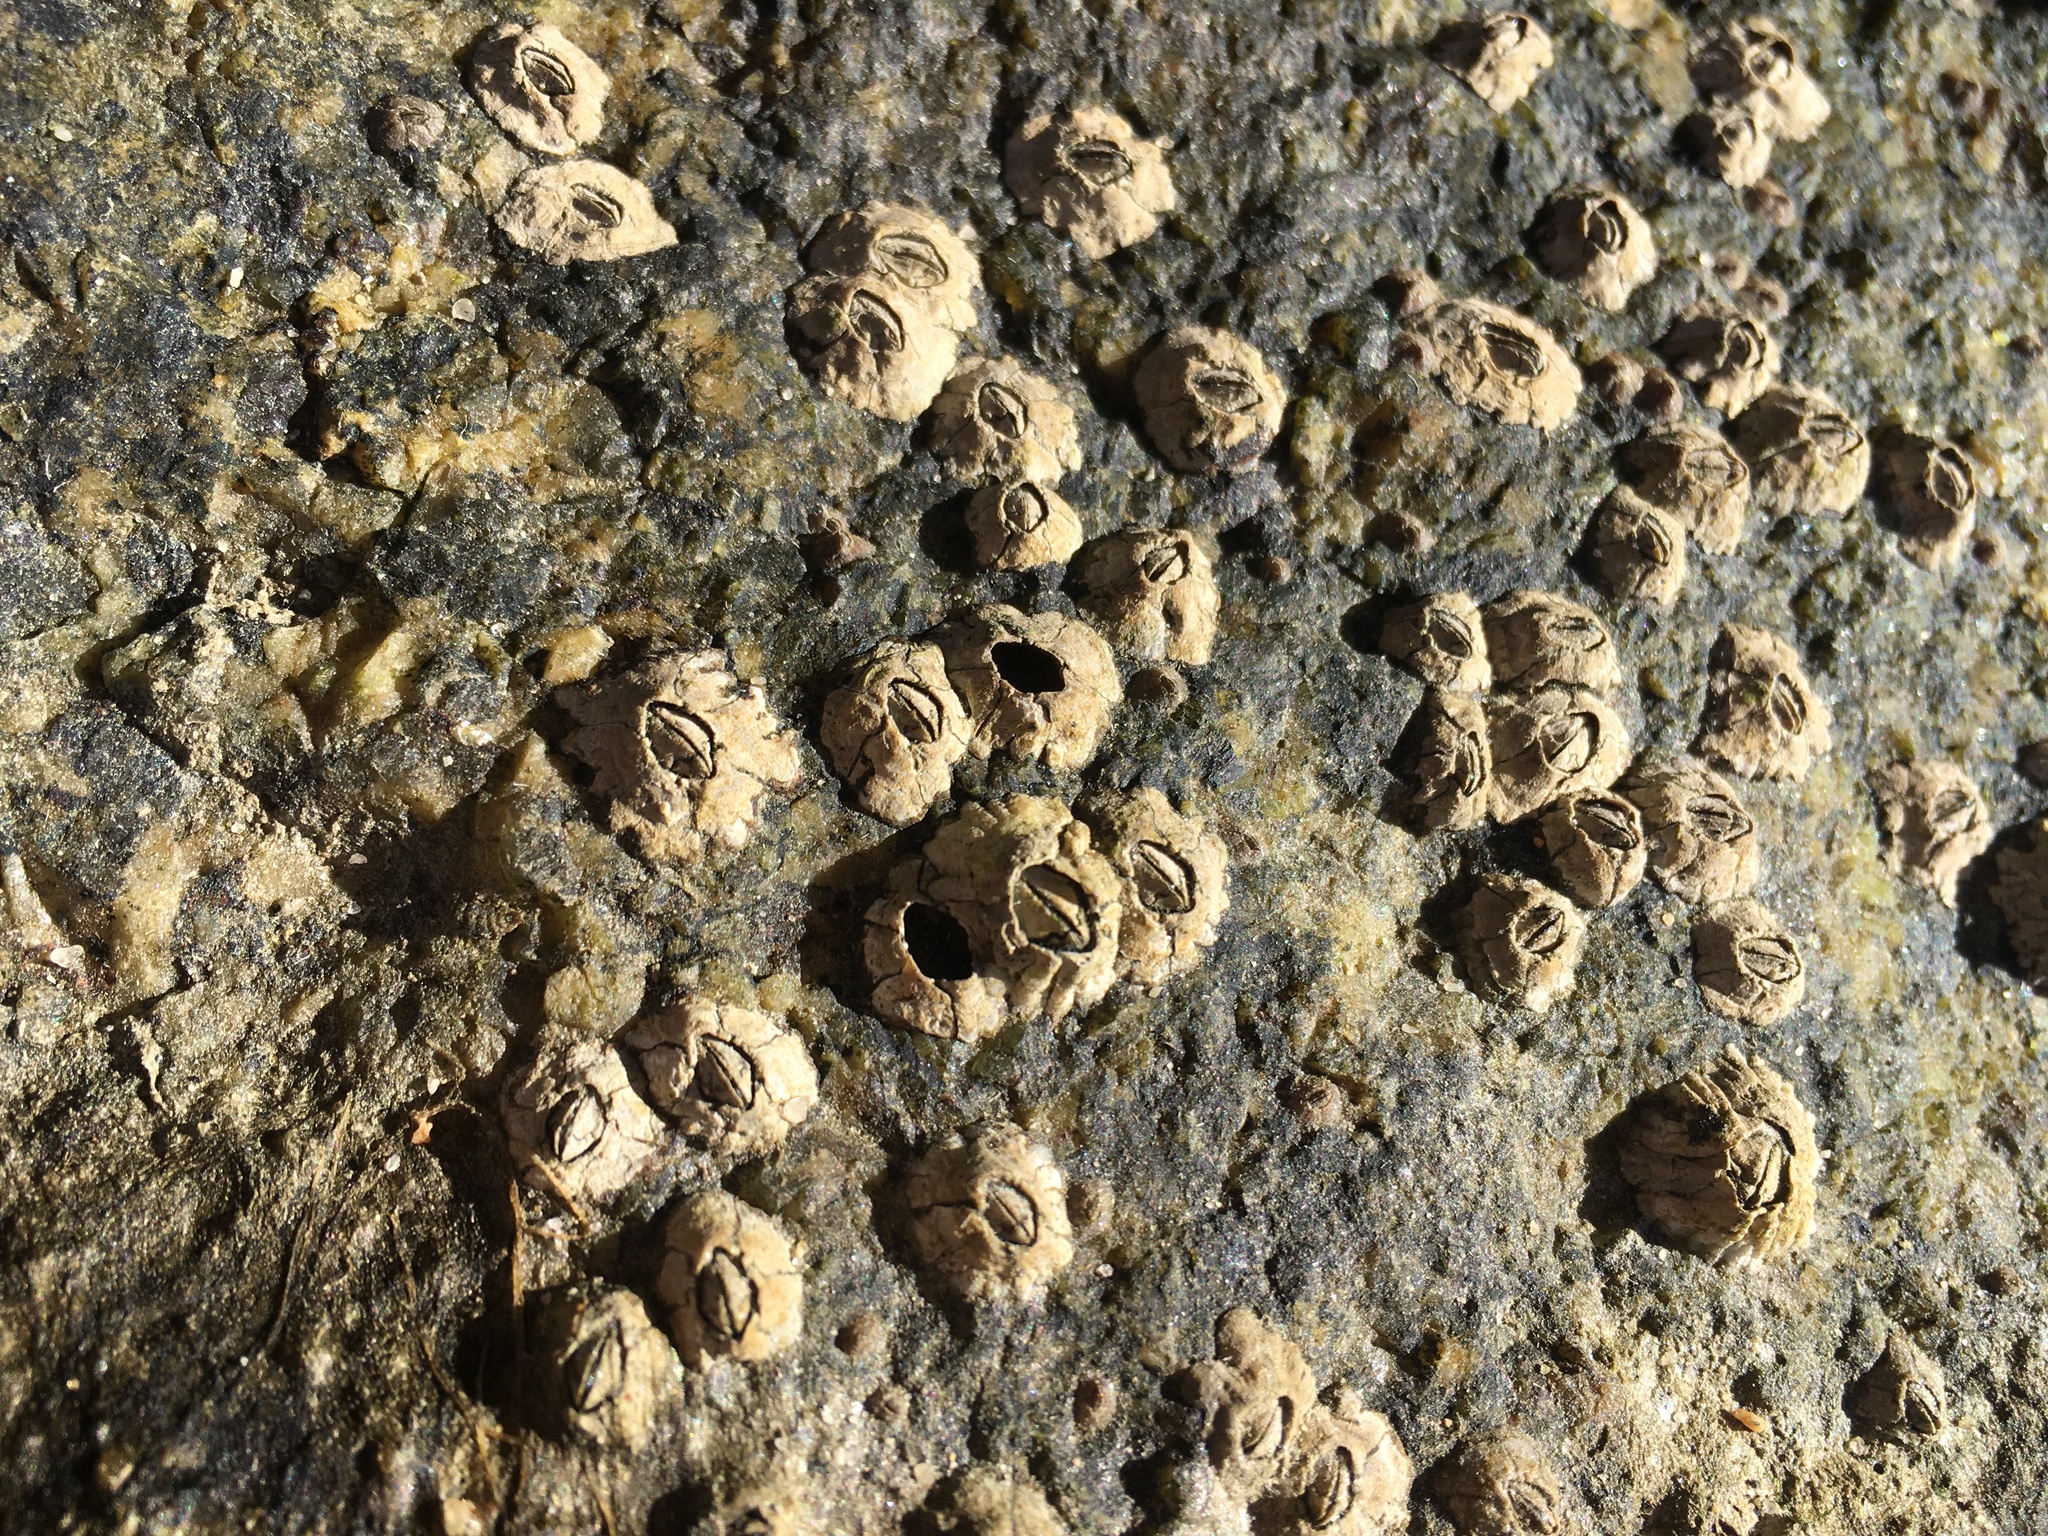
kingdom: Animalia
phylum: Arthropoda
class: Maxillopoda
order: Sessilia
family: Chthamalidae
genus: Chthamalus
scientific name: Chthamalus fragilis
